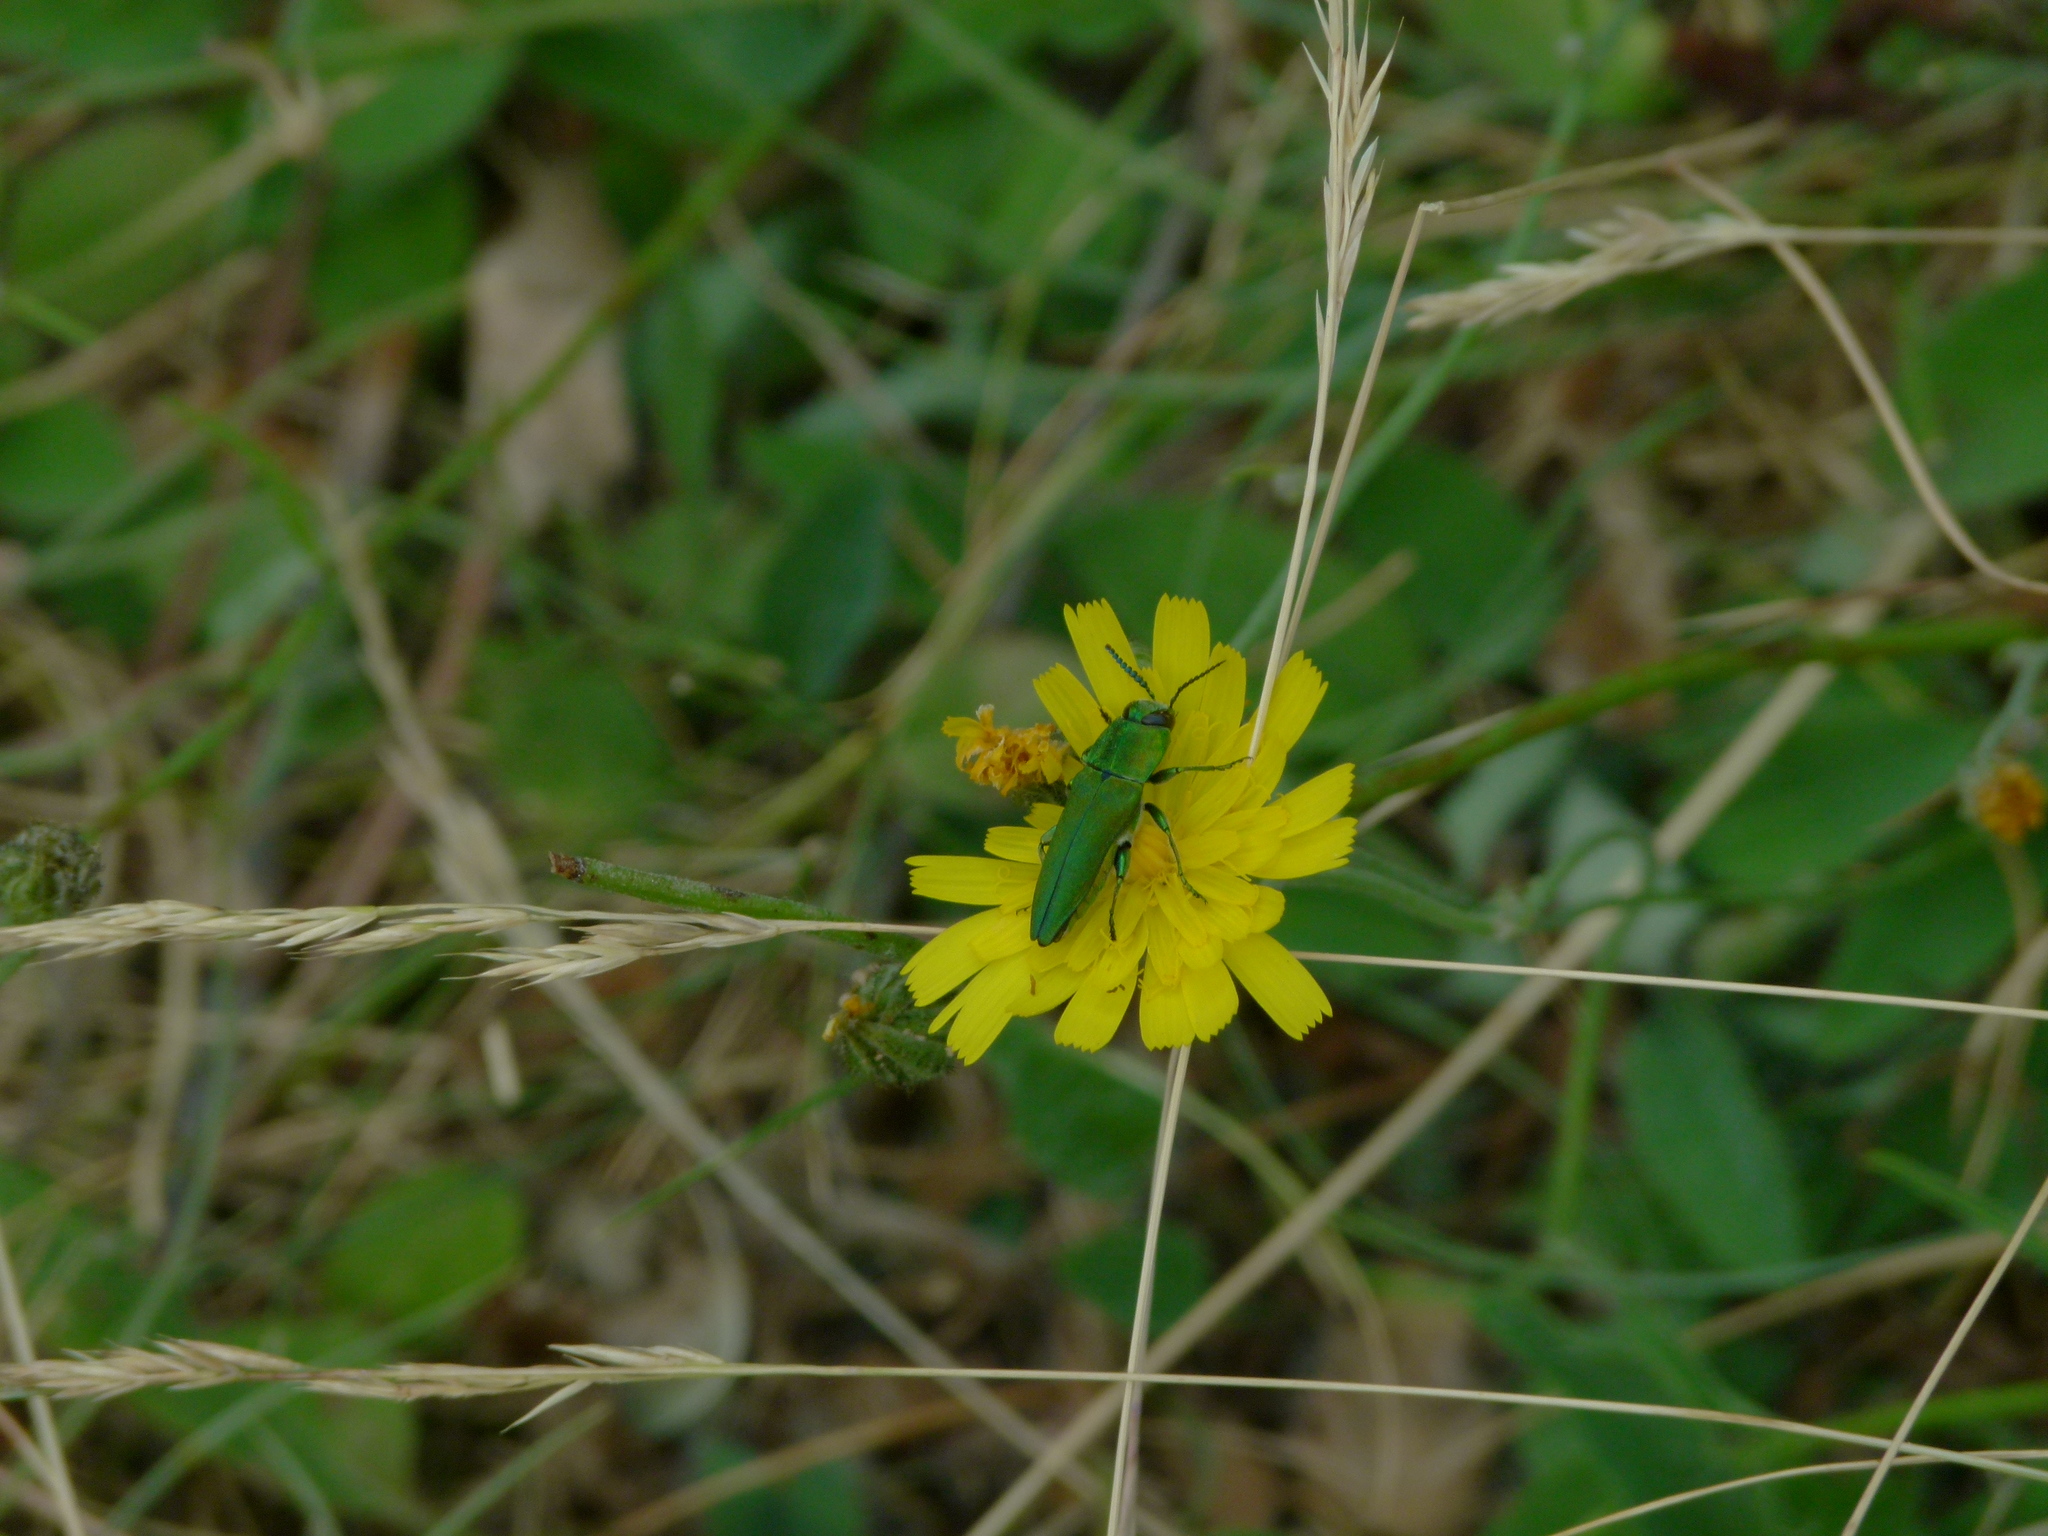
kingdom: Animalia
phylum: Arthropoda
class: Insecta
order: Coleoptera
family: Buprestidae
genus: Anthaxia
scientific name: Anthaxia hungarica
